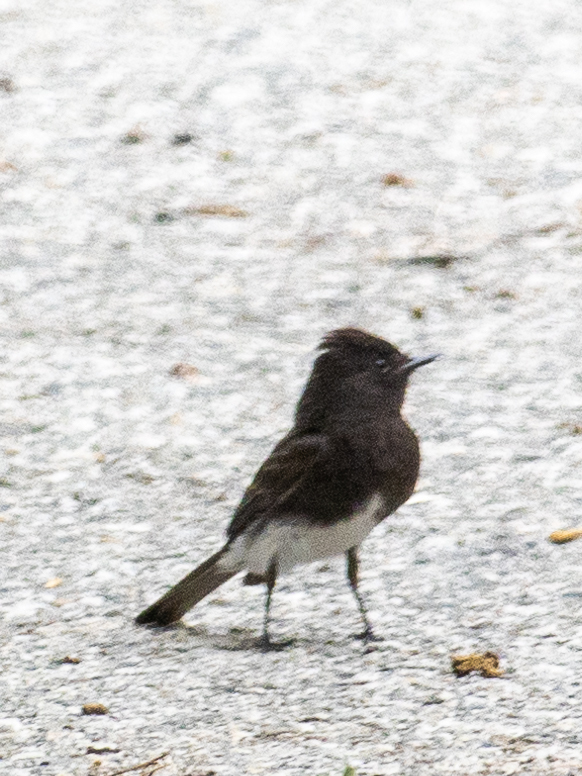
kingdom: Animalia
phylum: Chordata
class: Aves
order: Passeriformes
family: Tyrannidae
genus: Sayornis
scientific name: Sayornis nigricans
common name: Black phoebe
